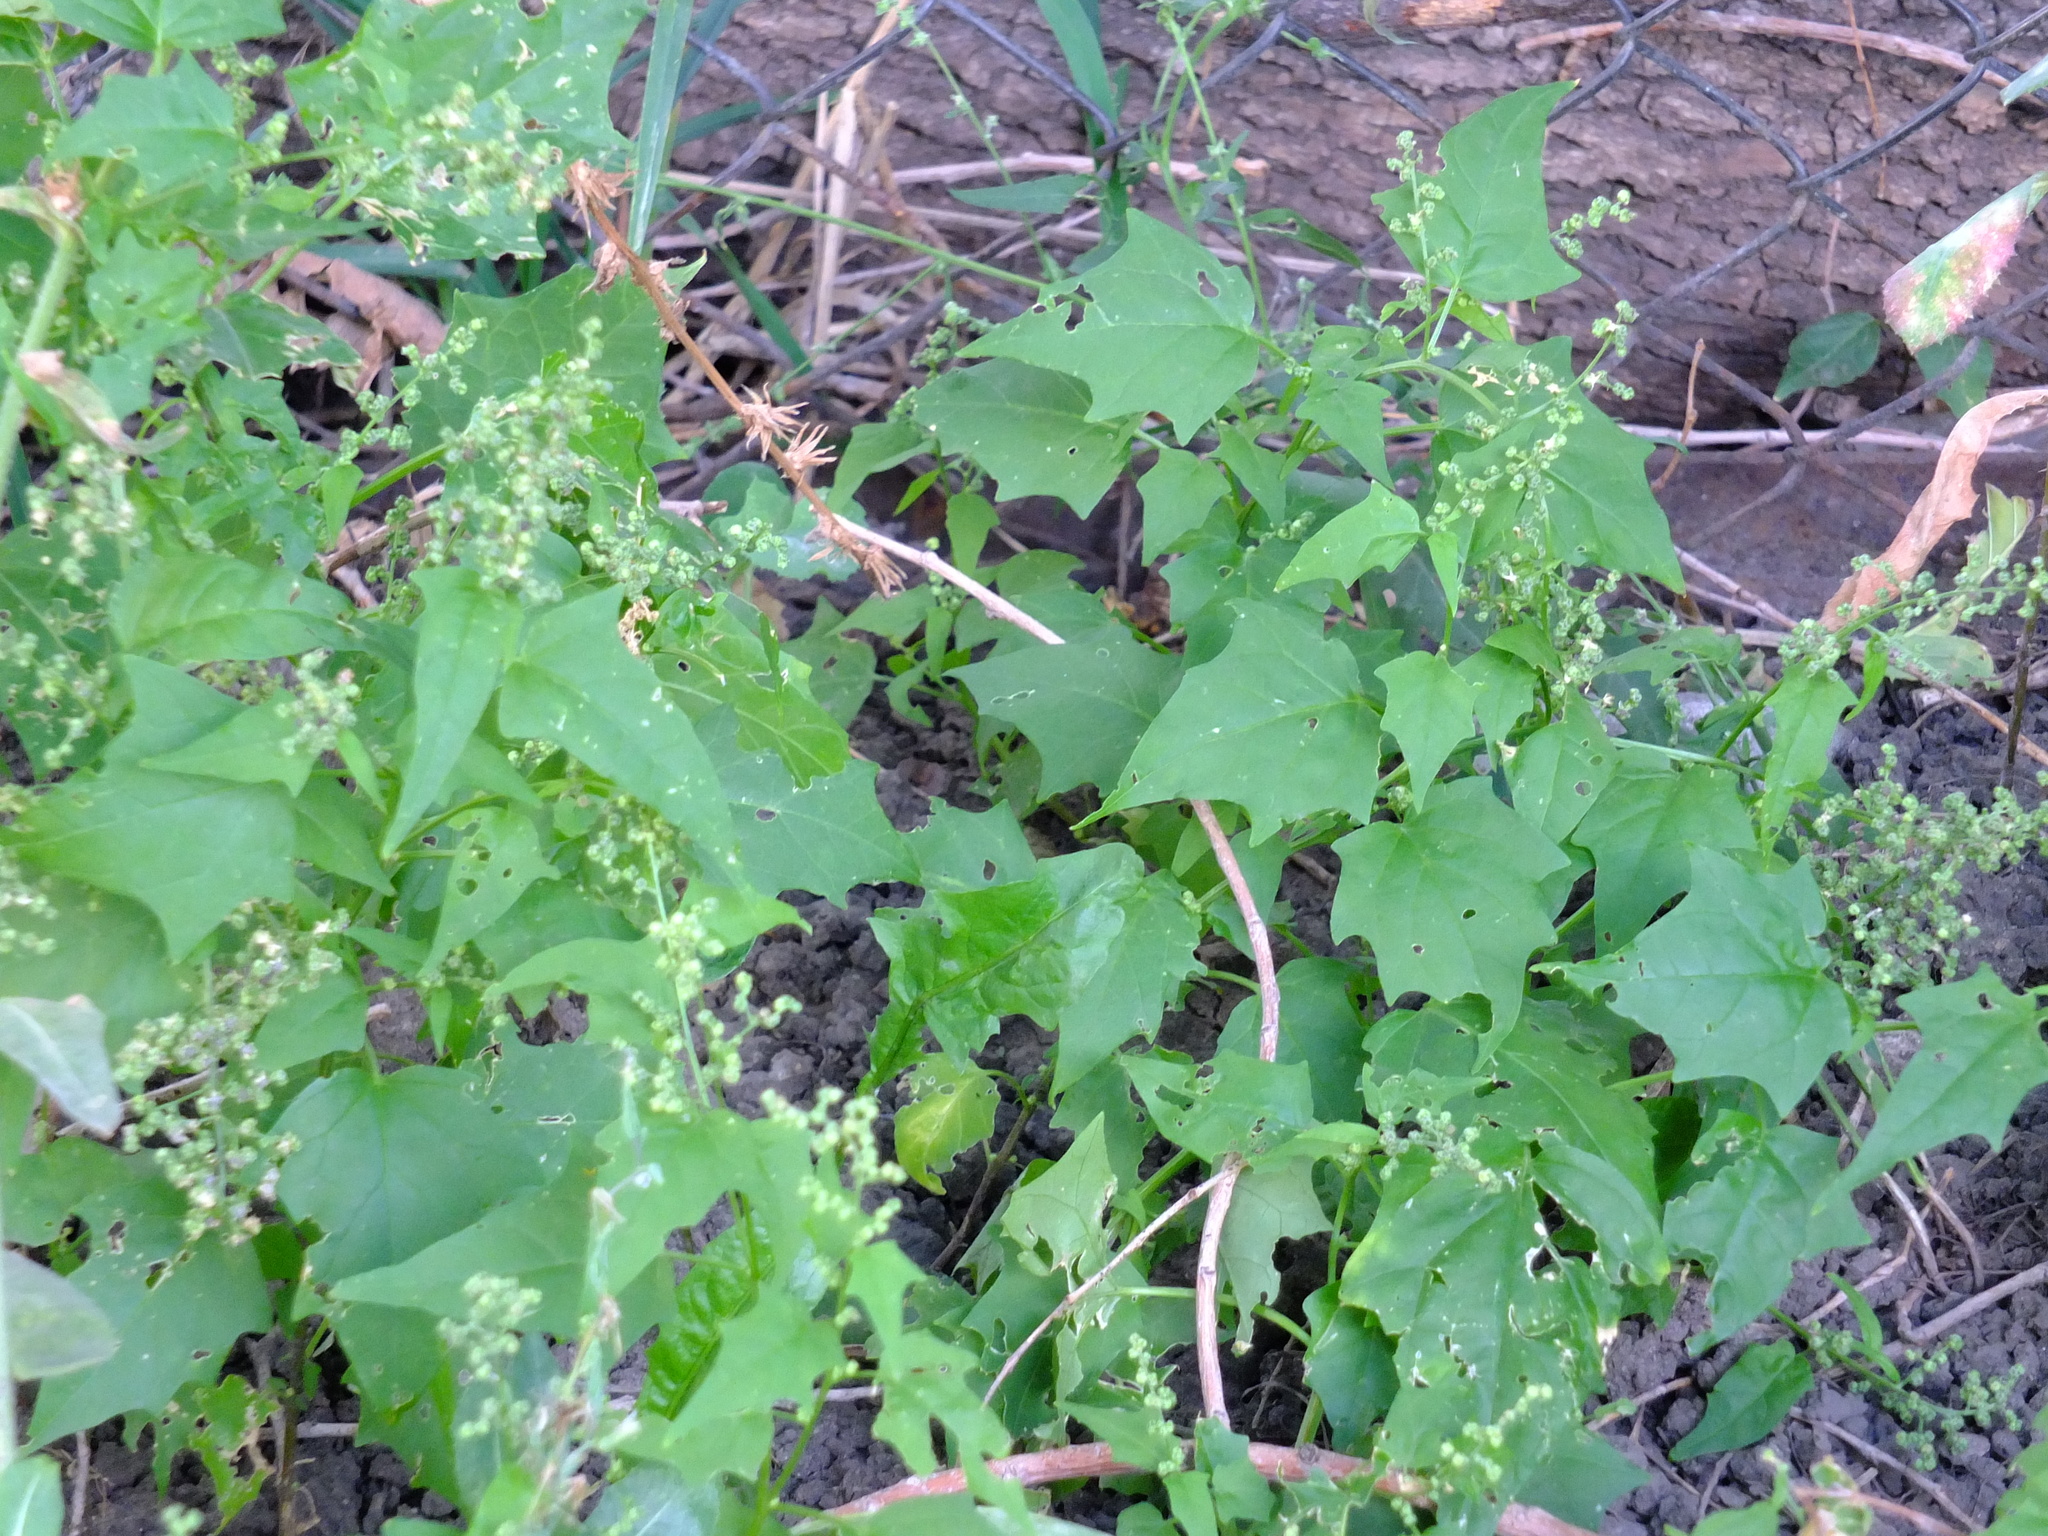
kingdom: Plantae
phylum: Tracheophyta
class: Magnoliopsida
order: Caryophyllales
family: Amaranthaceae
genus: Chenopodiastrum
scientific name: Chenopodiastrum hybridum
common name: Mapleleaf goosefoot
